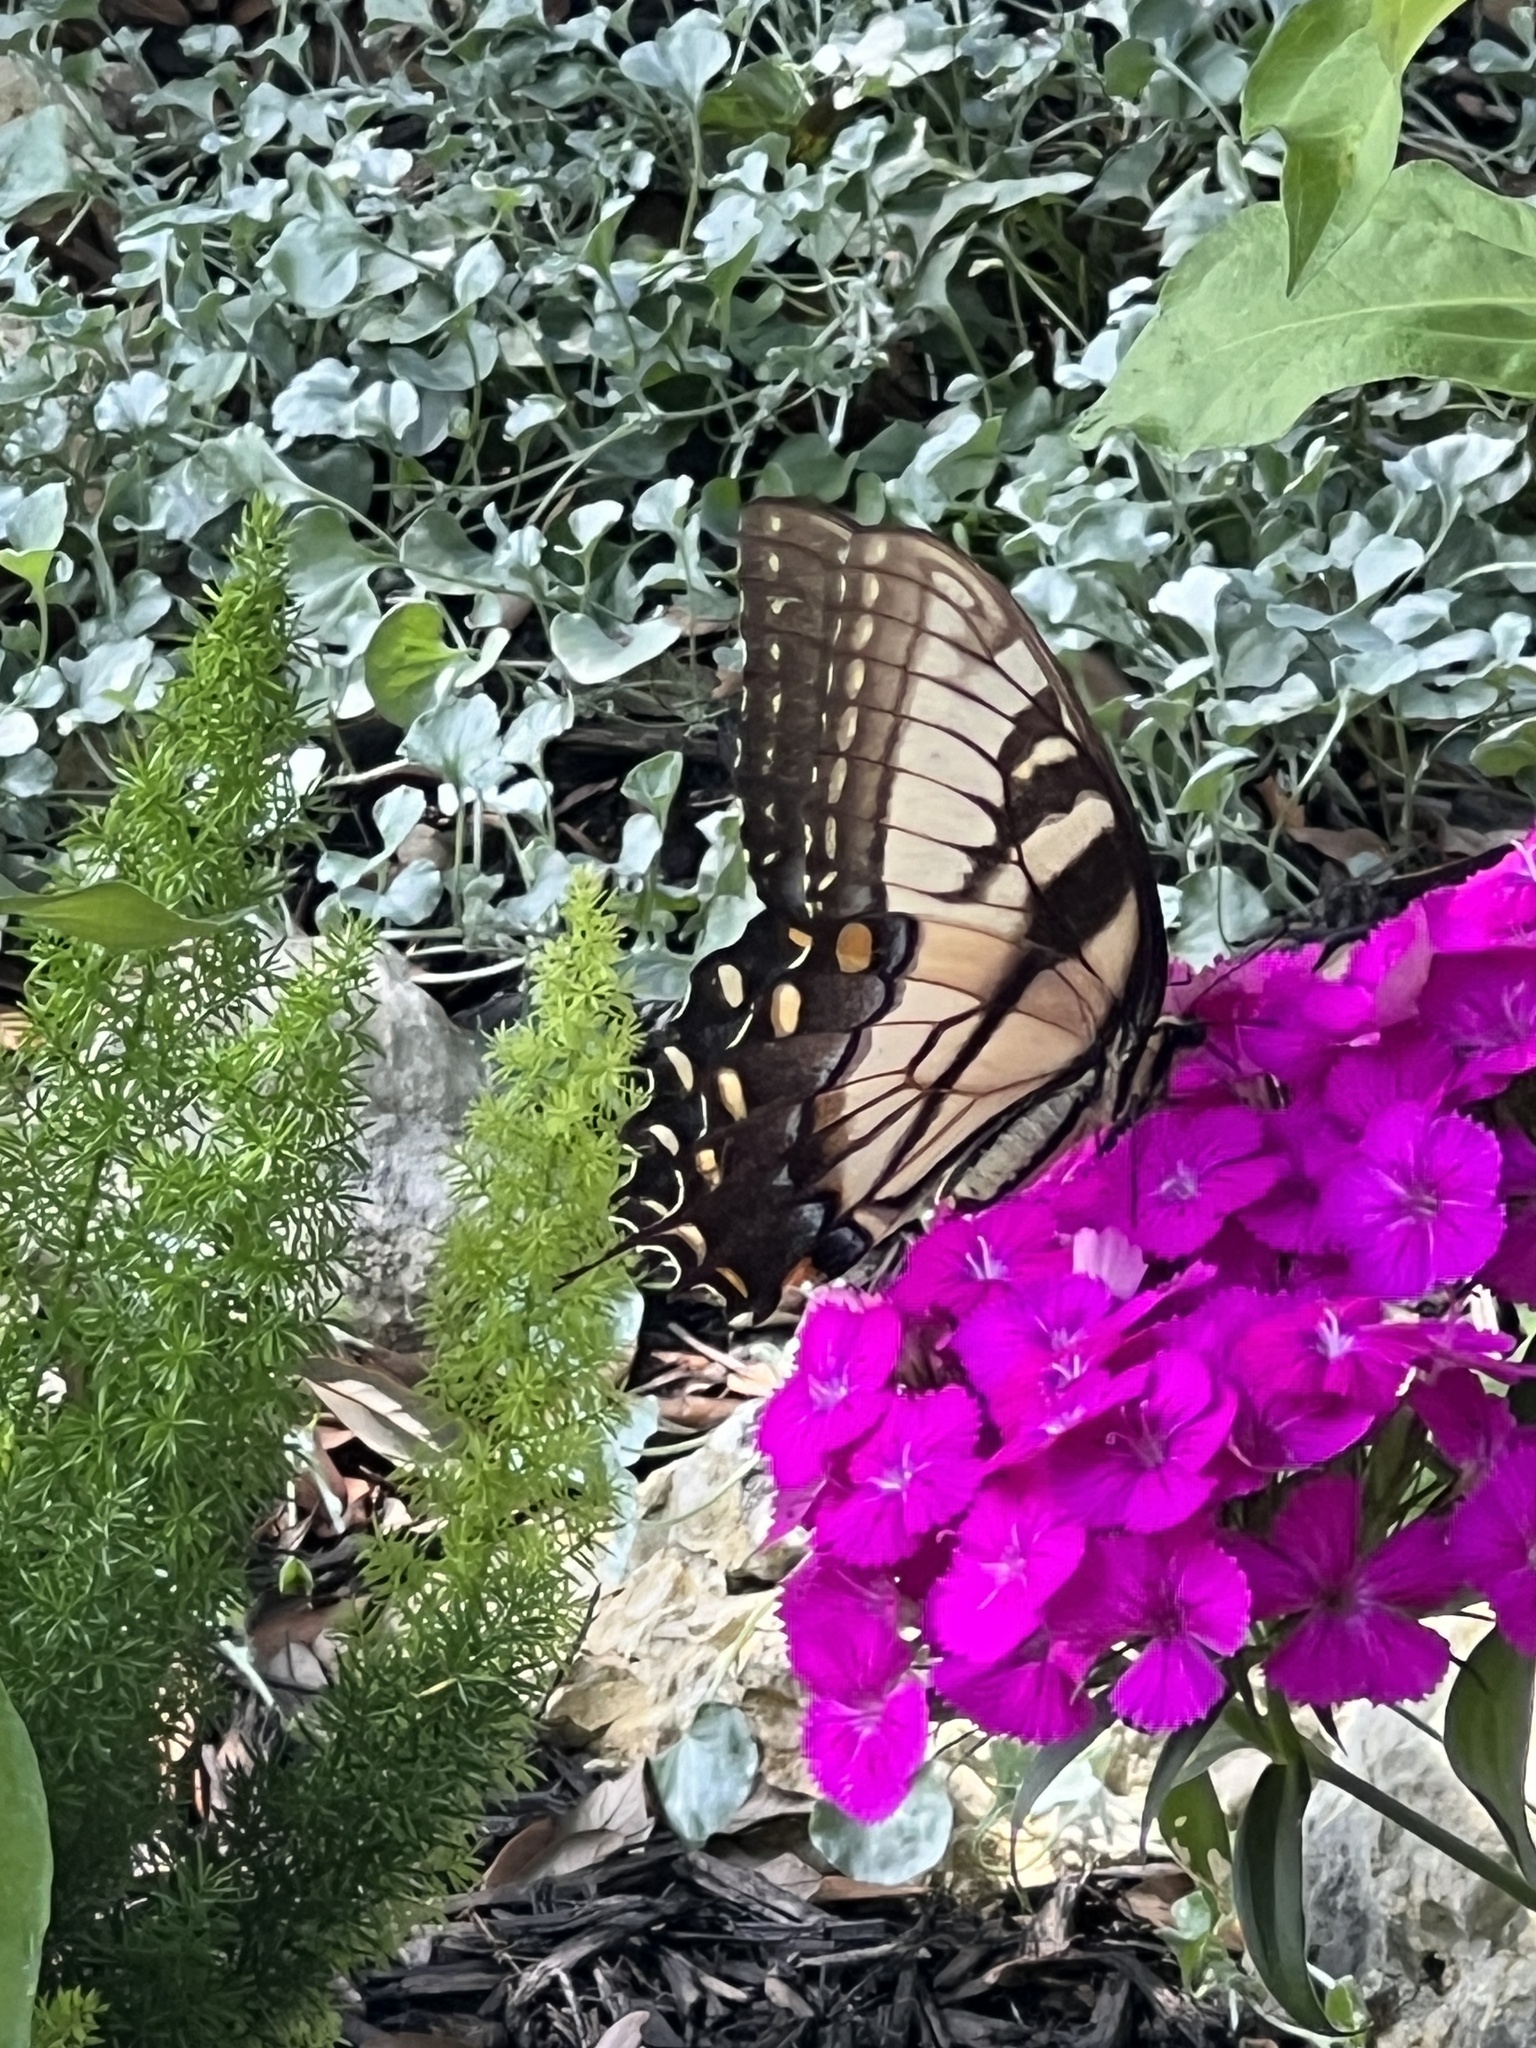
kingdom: Animalia
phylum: Arthropoda
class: Insecta
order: Lepidoptera
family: Papilionidae
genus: Papilio
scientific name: Papilio glaucus
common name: Tiger swallowtail
